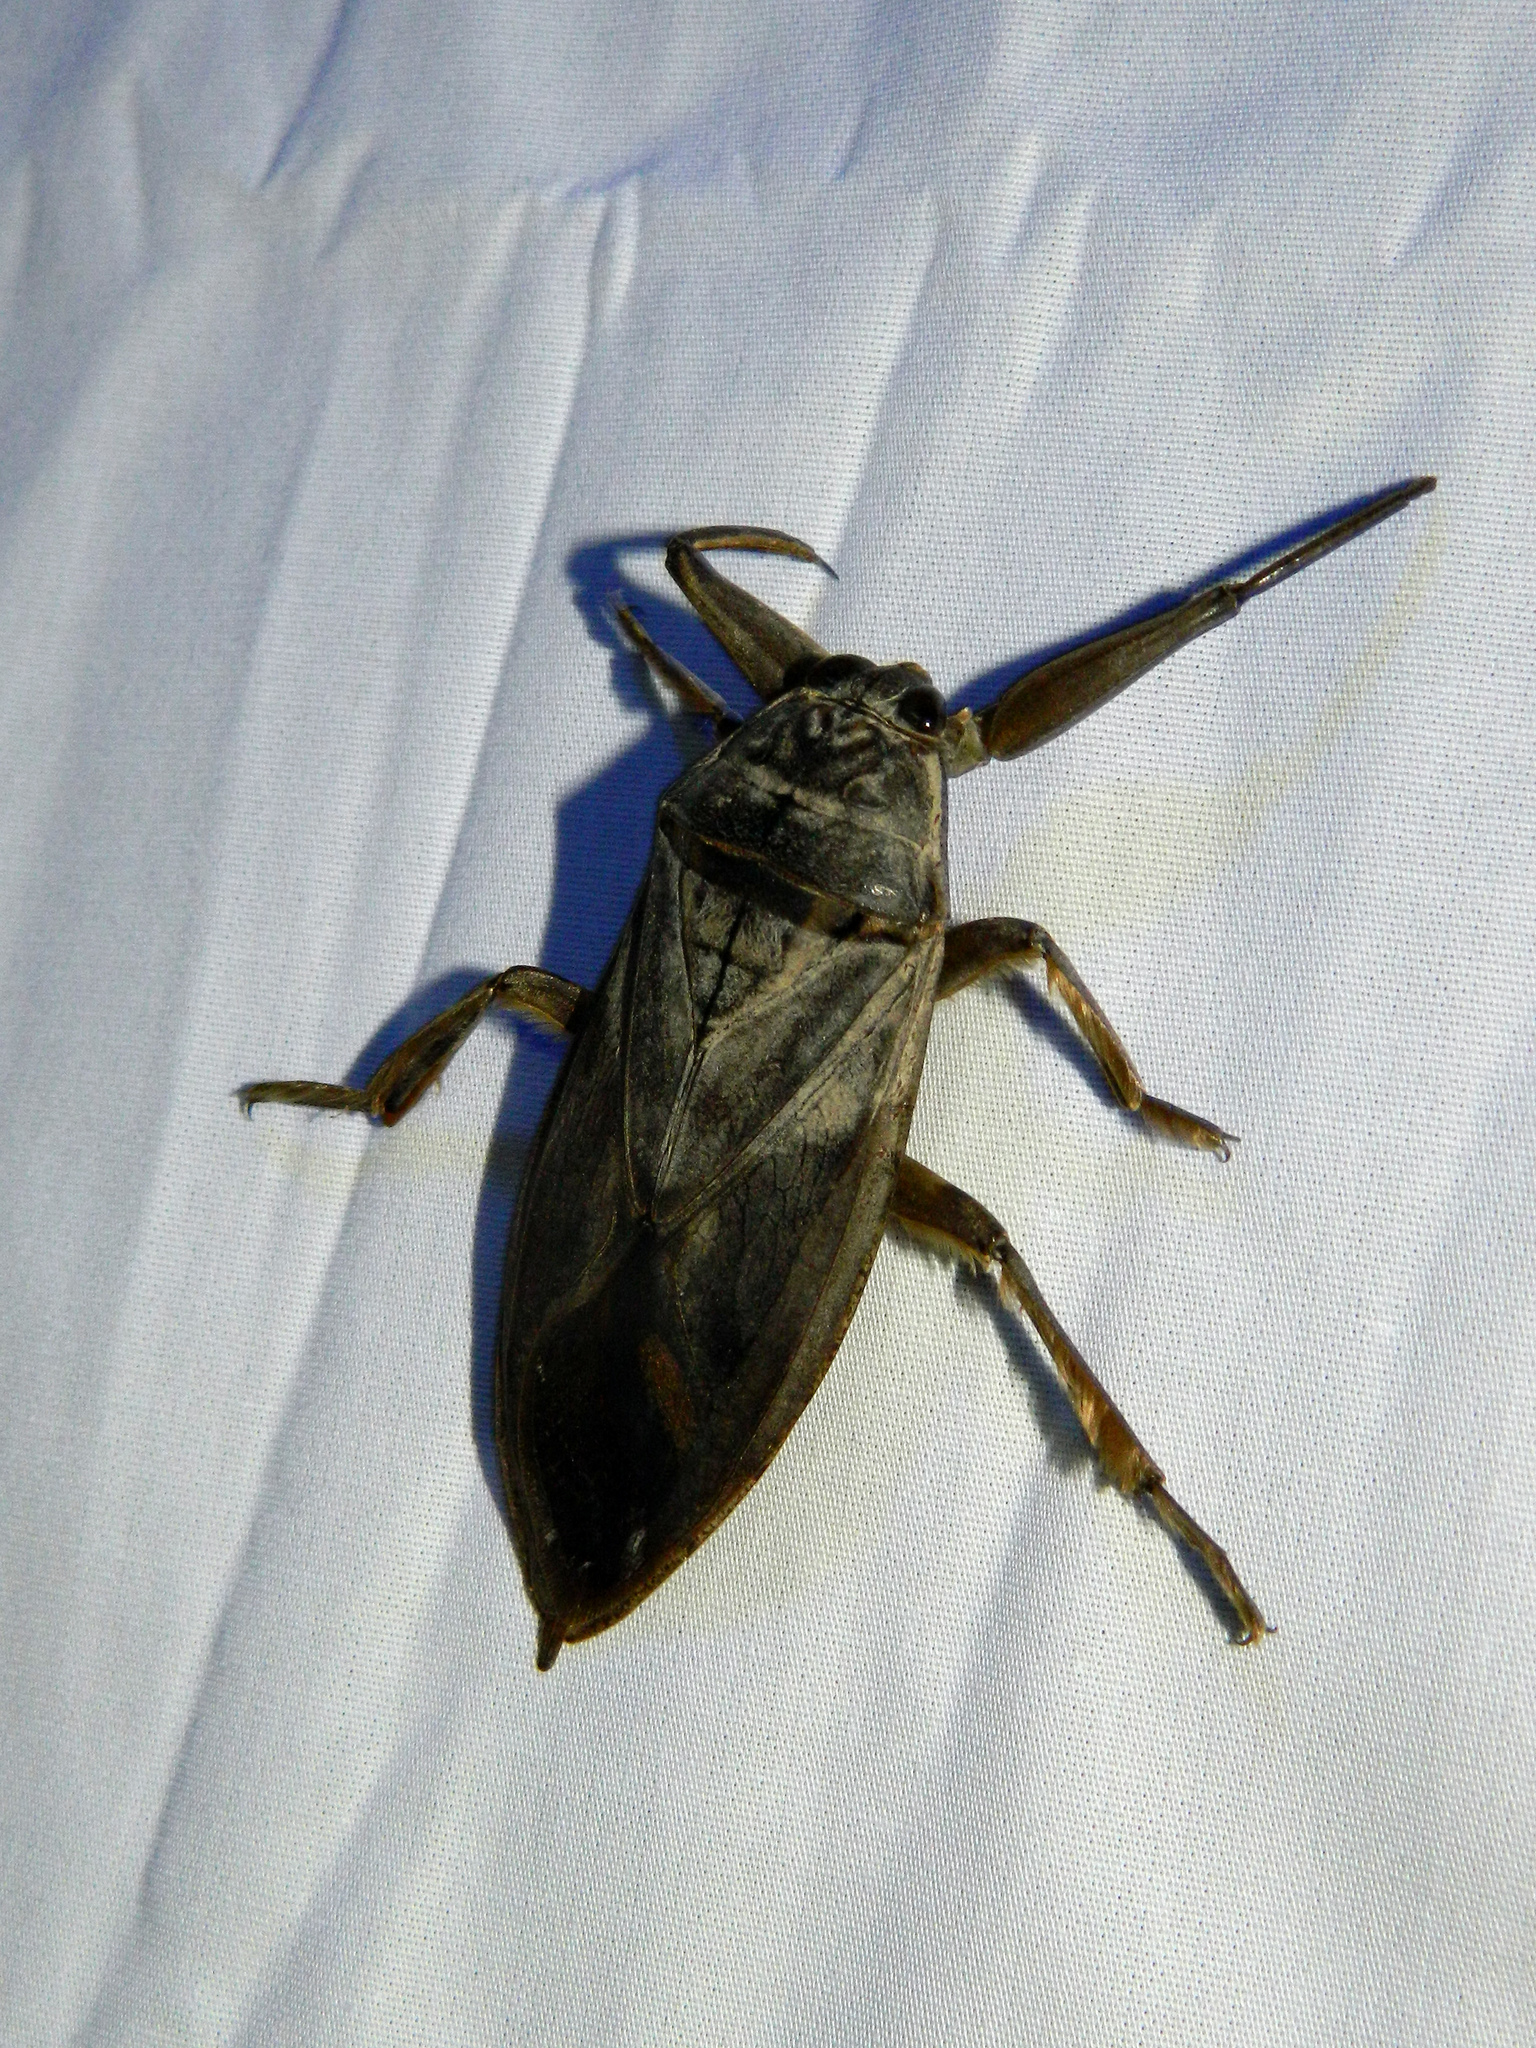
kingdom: Animalia
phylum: Arthropoda
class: Insecta
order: Hemiptera
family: Belostomatidae
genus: Lethocerus
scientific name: Lethocerus americanus
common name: Giant water bug
